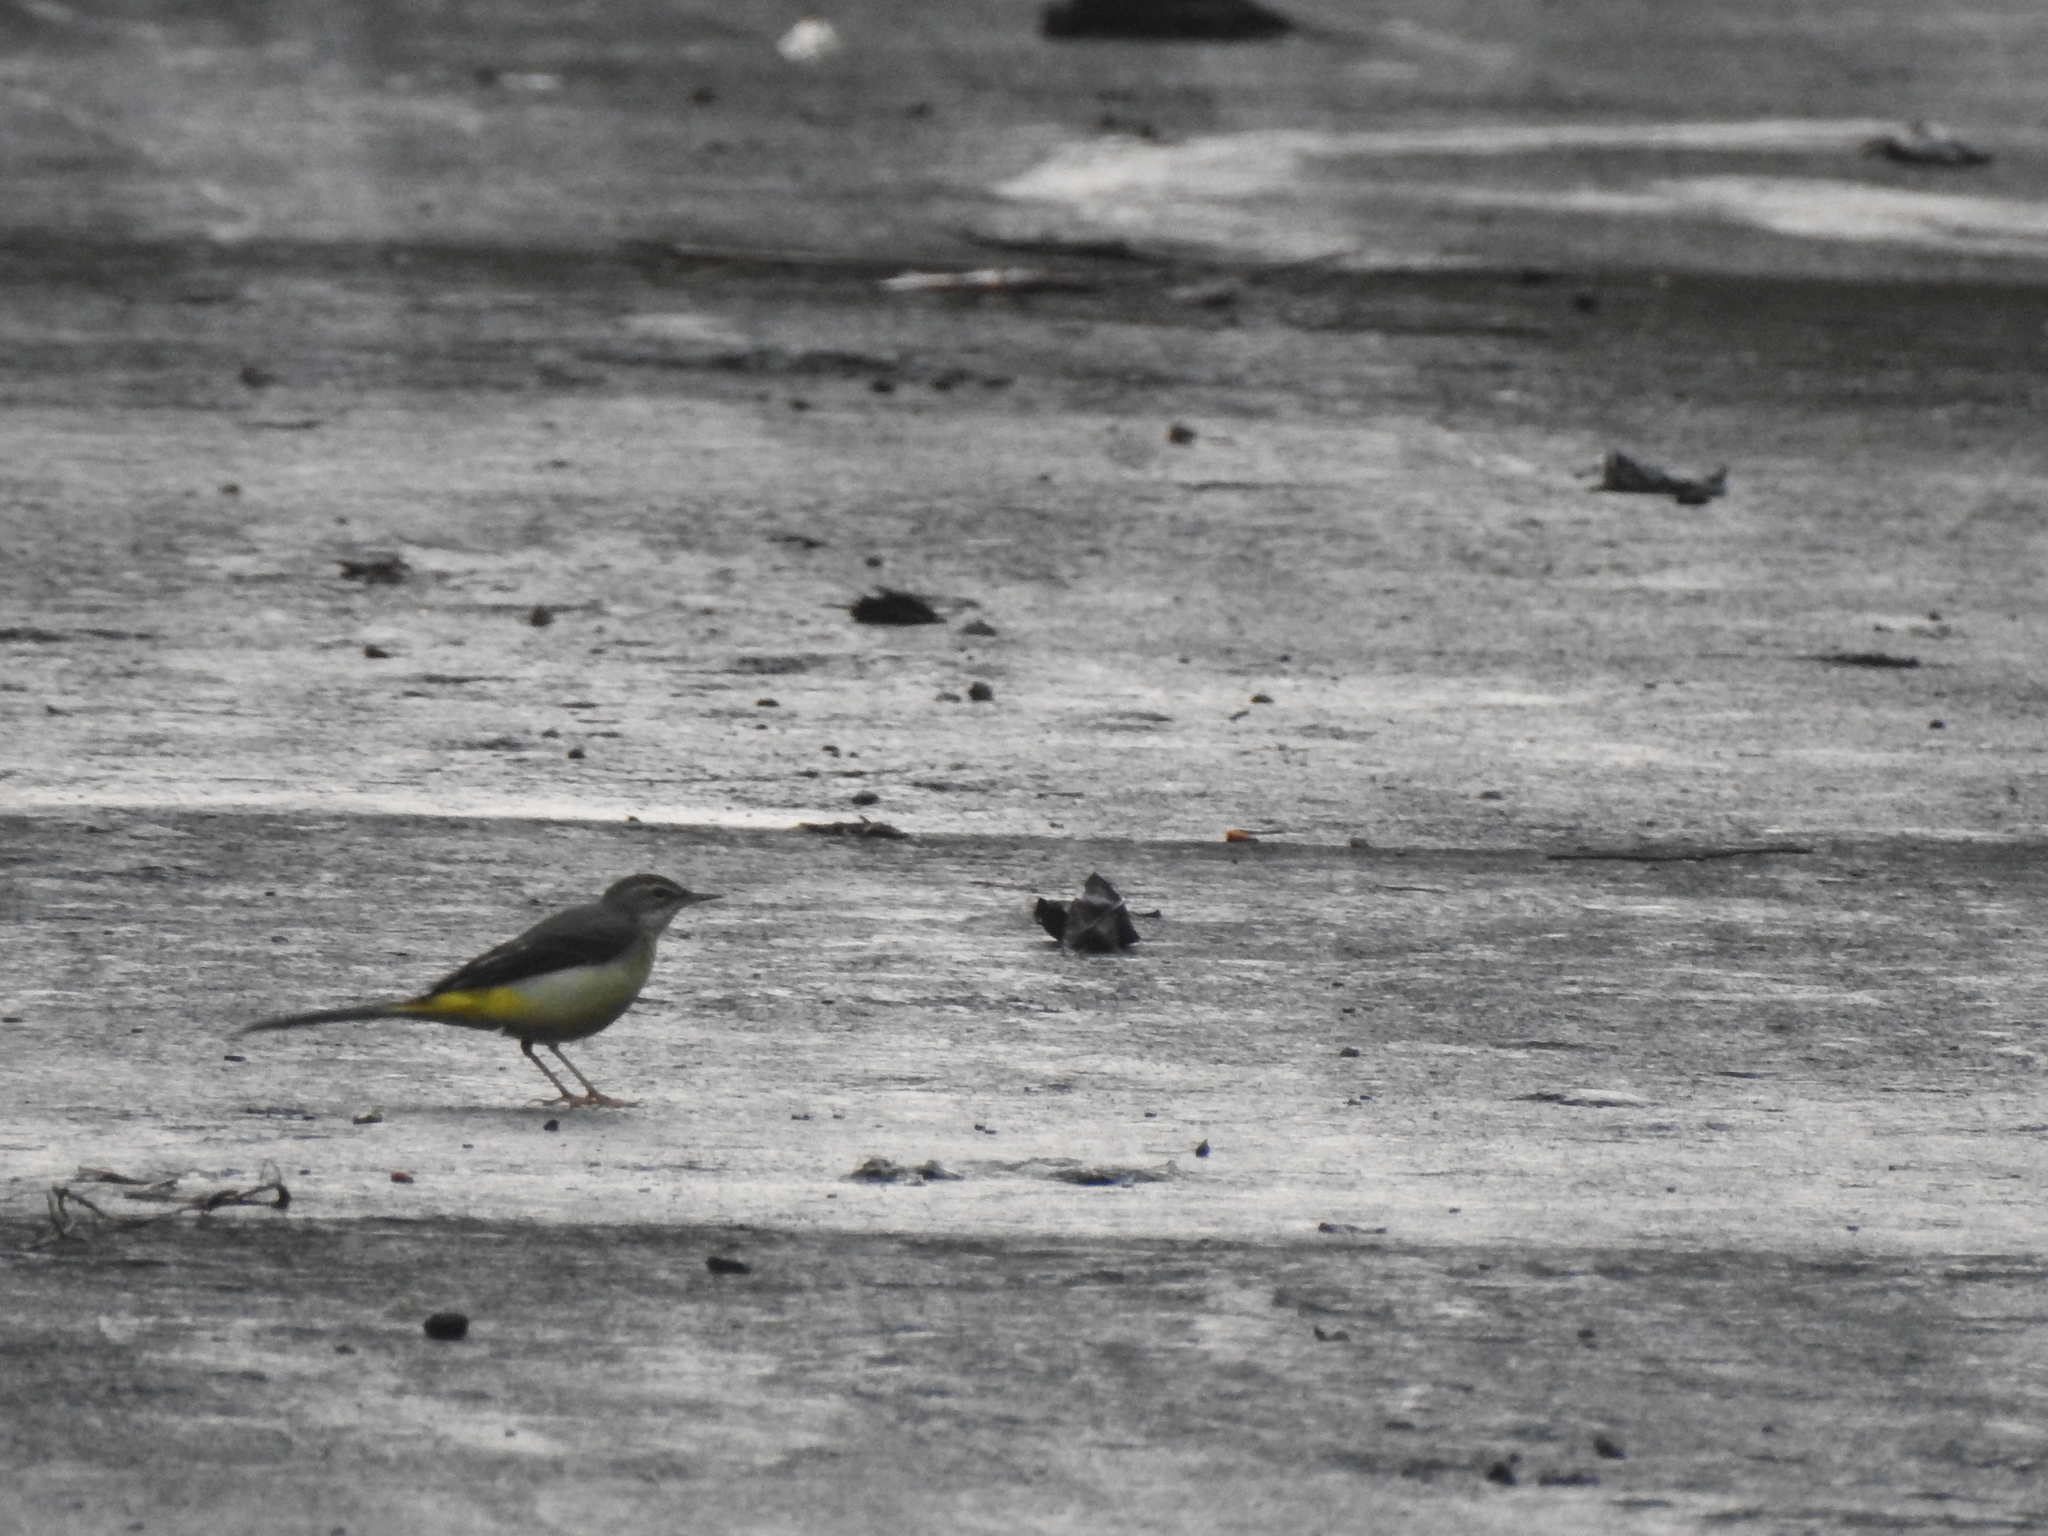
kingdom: Animalia
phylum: Chordata
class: Aves
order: Passeriformes
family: Motacillidae
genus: Motacilla
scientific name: Motacilla cinerea
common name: Grey wagtail
